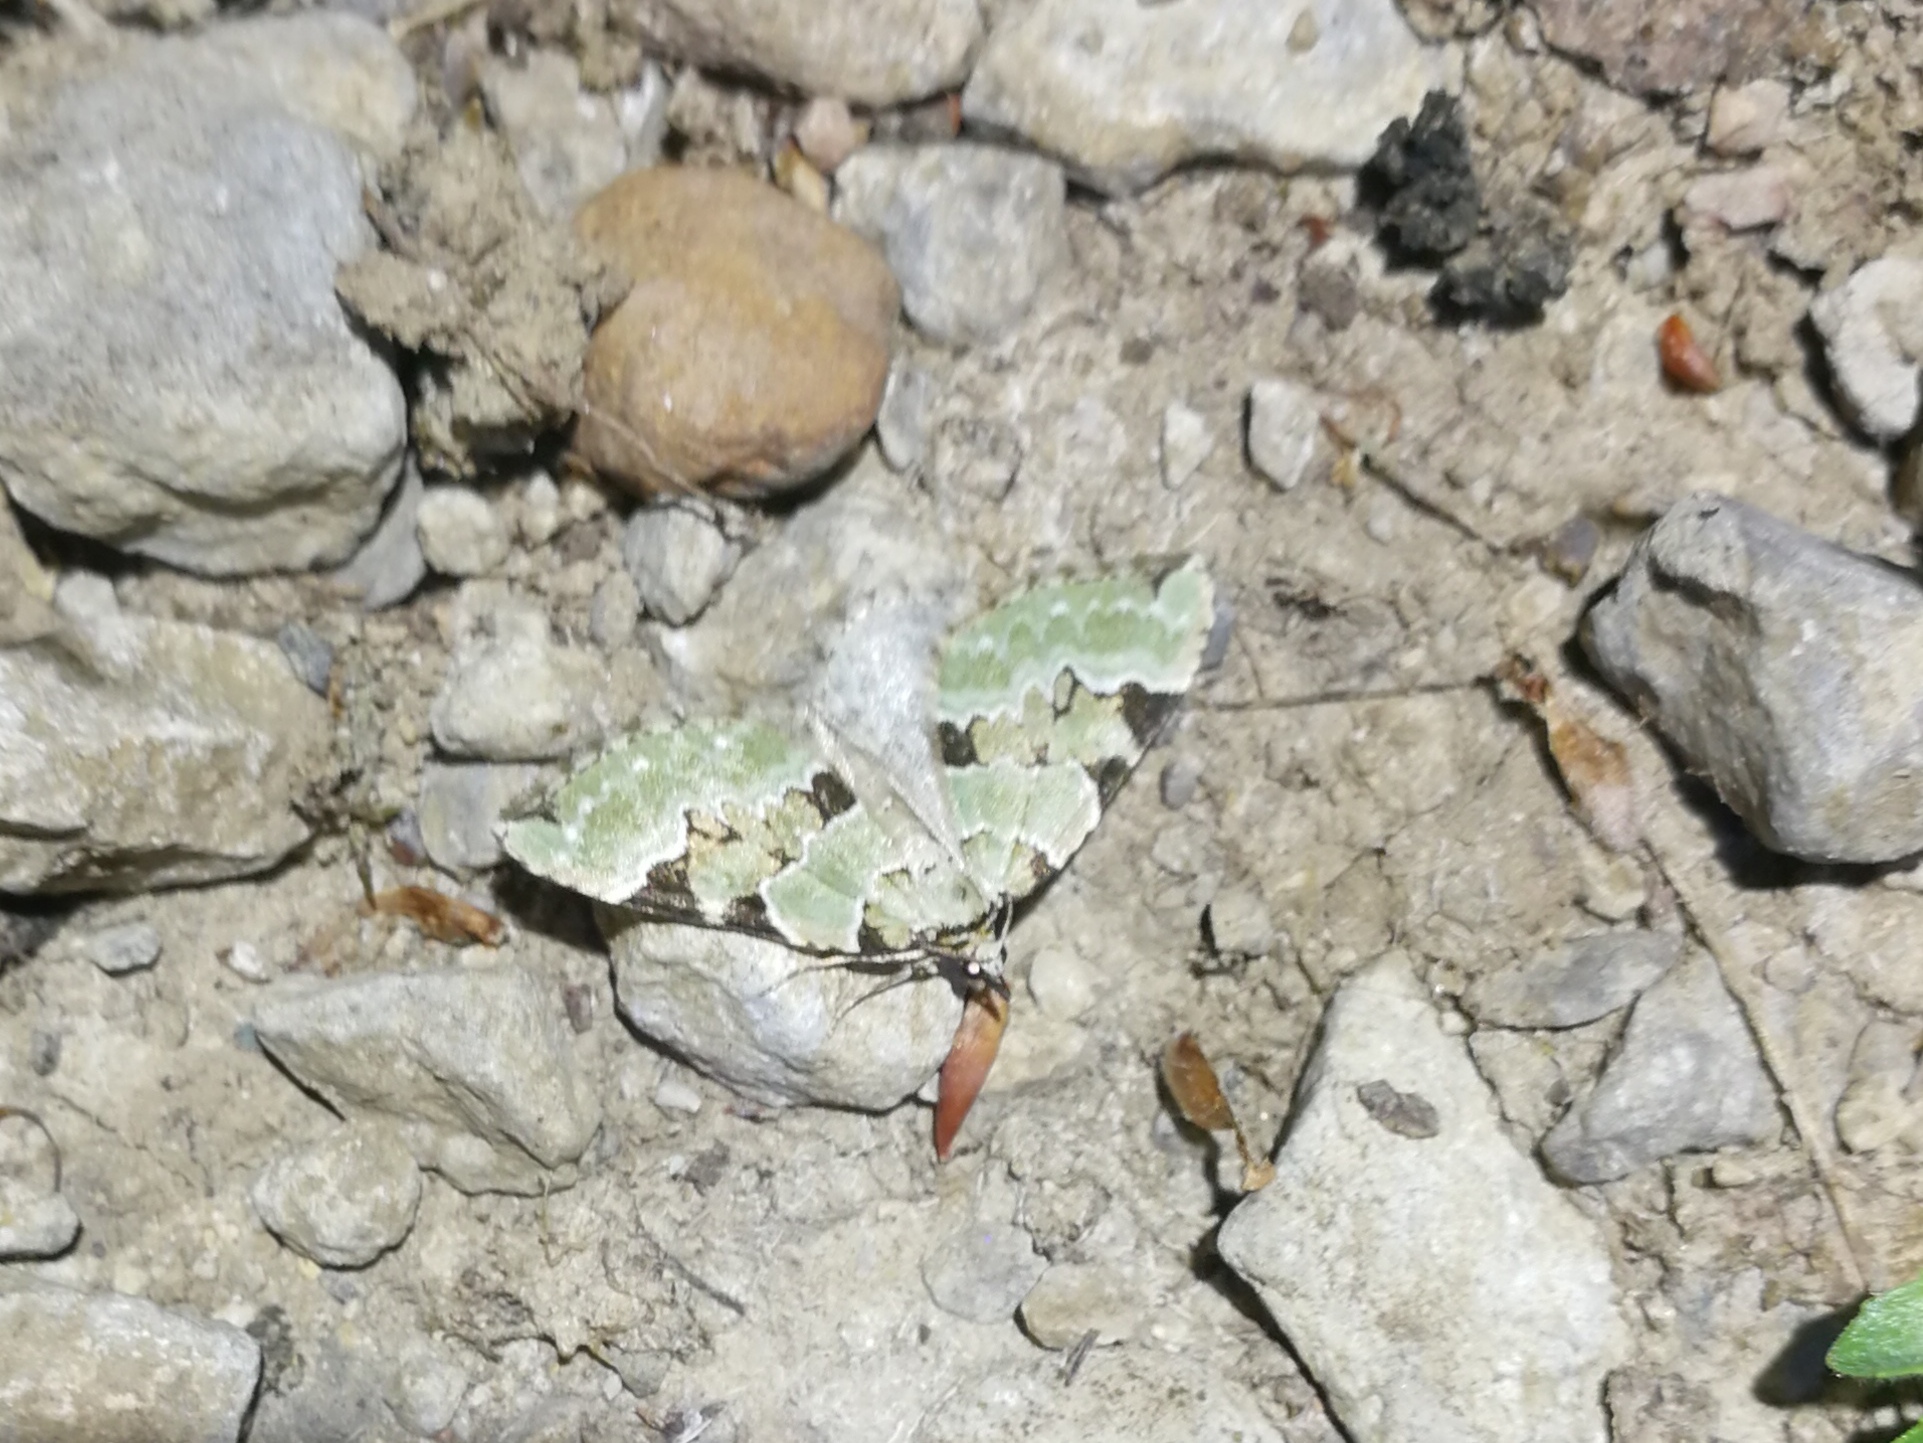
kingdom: Animalia
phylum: Arthropoda
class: Insecta
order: Lepidoptera
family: Geometridae
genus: Colostygia
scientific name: Colostygia pectinataria
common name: Green carpet
